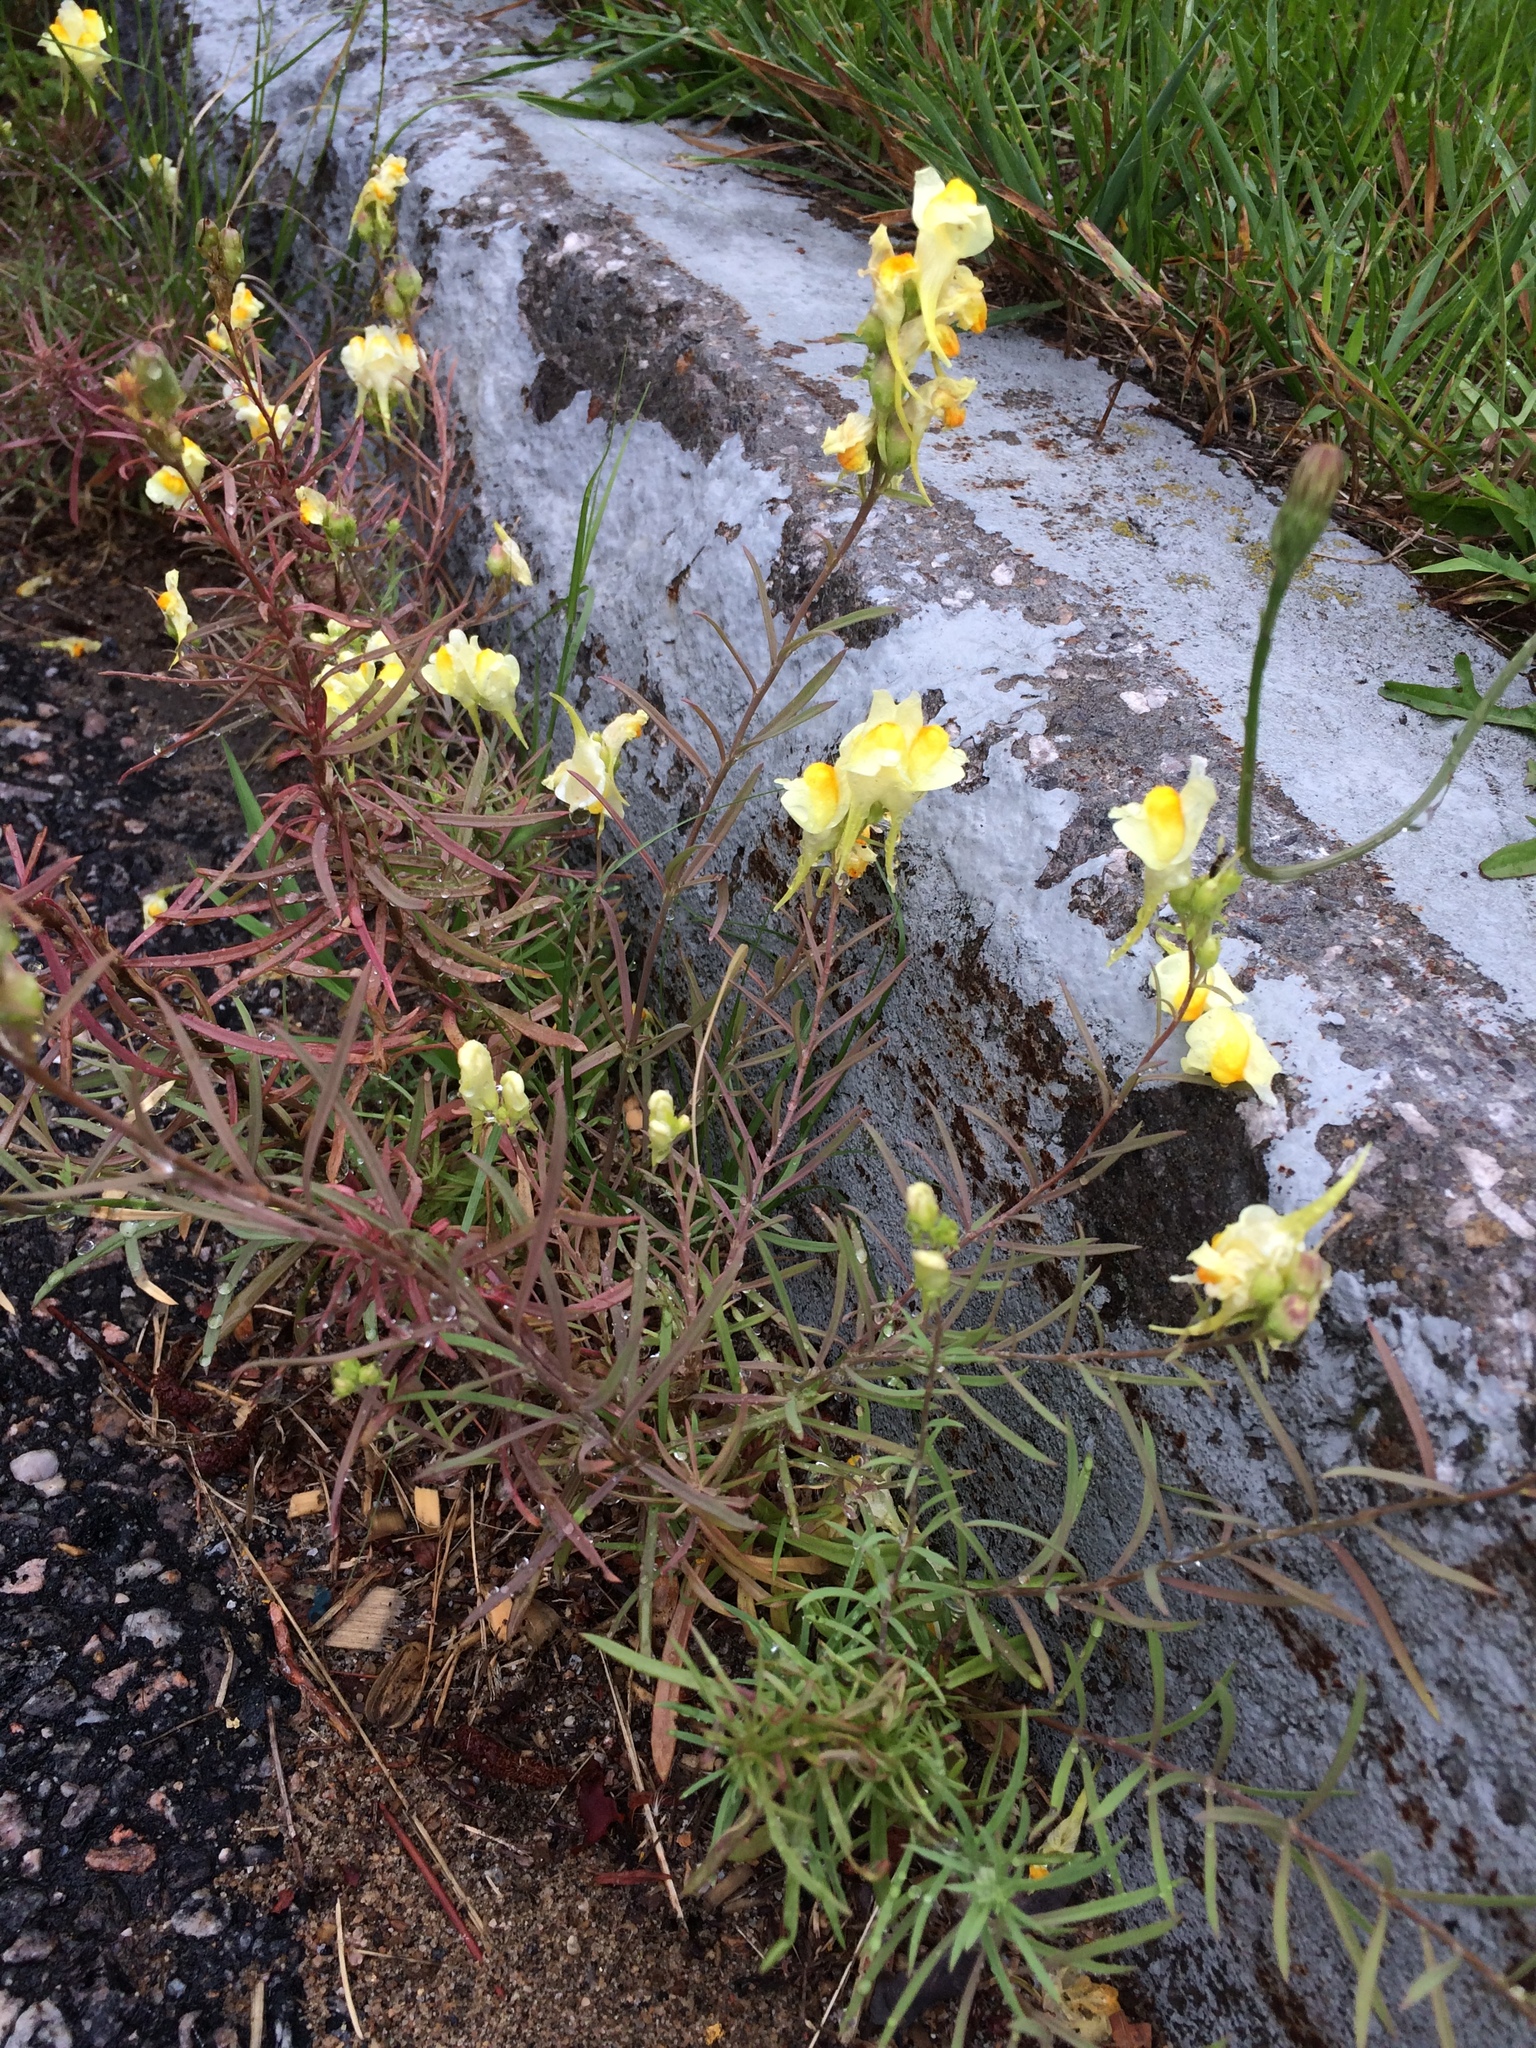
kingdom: Plantae
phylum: Tracheophyta
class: Magnoliopsida
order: Lamiales
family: Plantaginaceae
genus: Linaria
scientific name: Linaria vulgaris
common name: Butter and eggs
